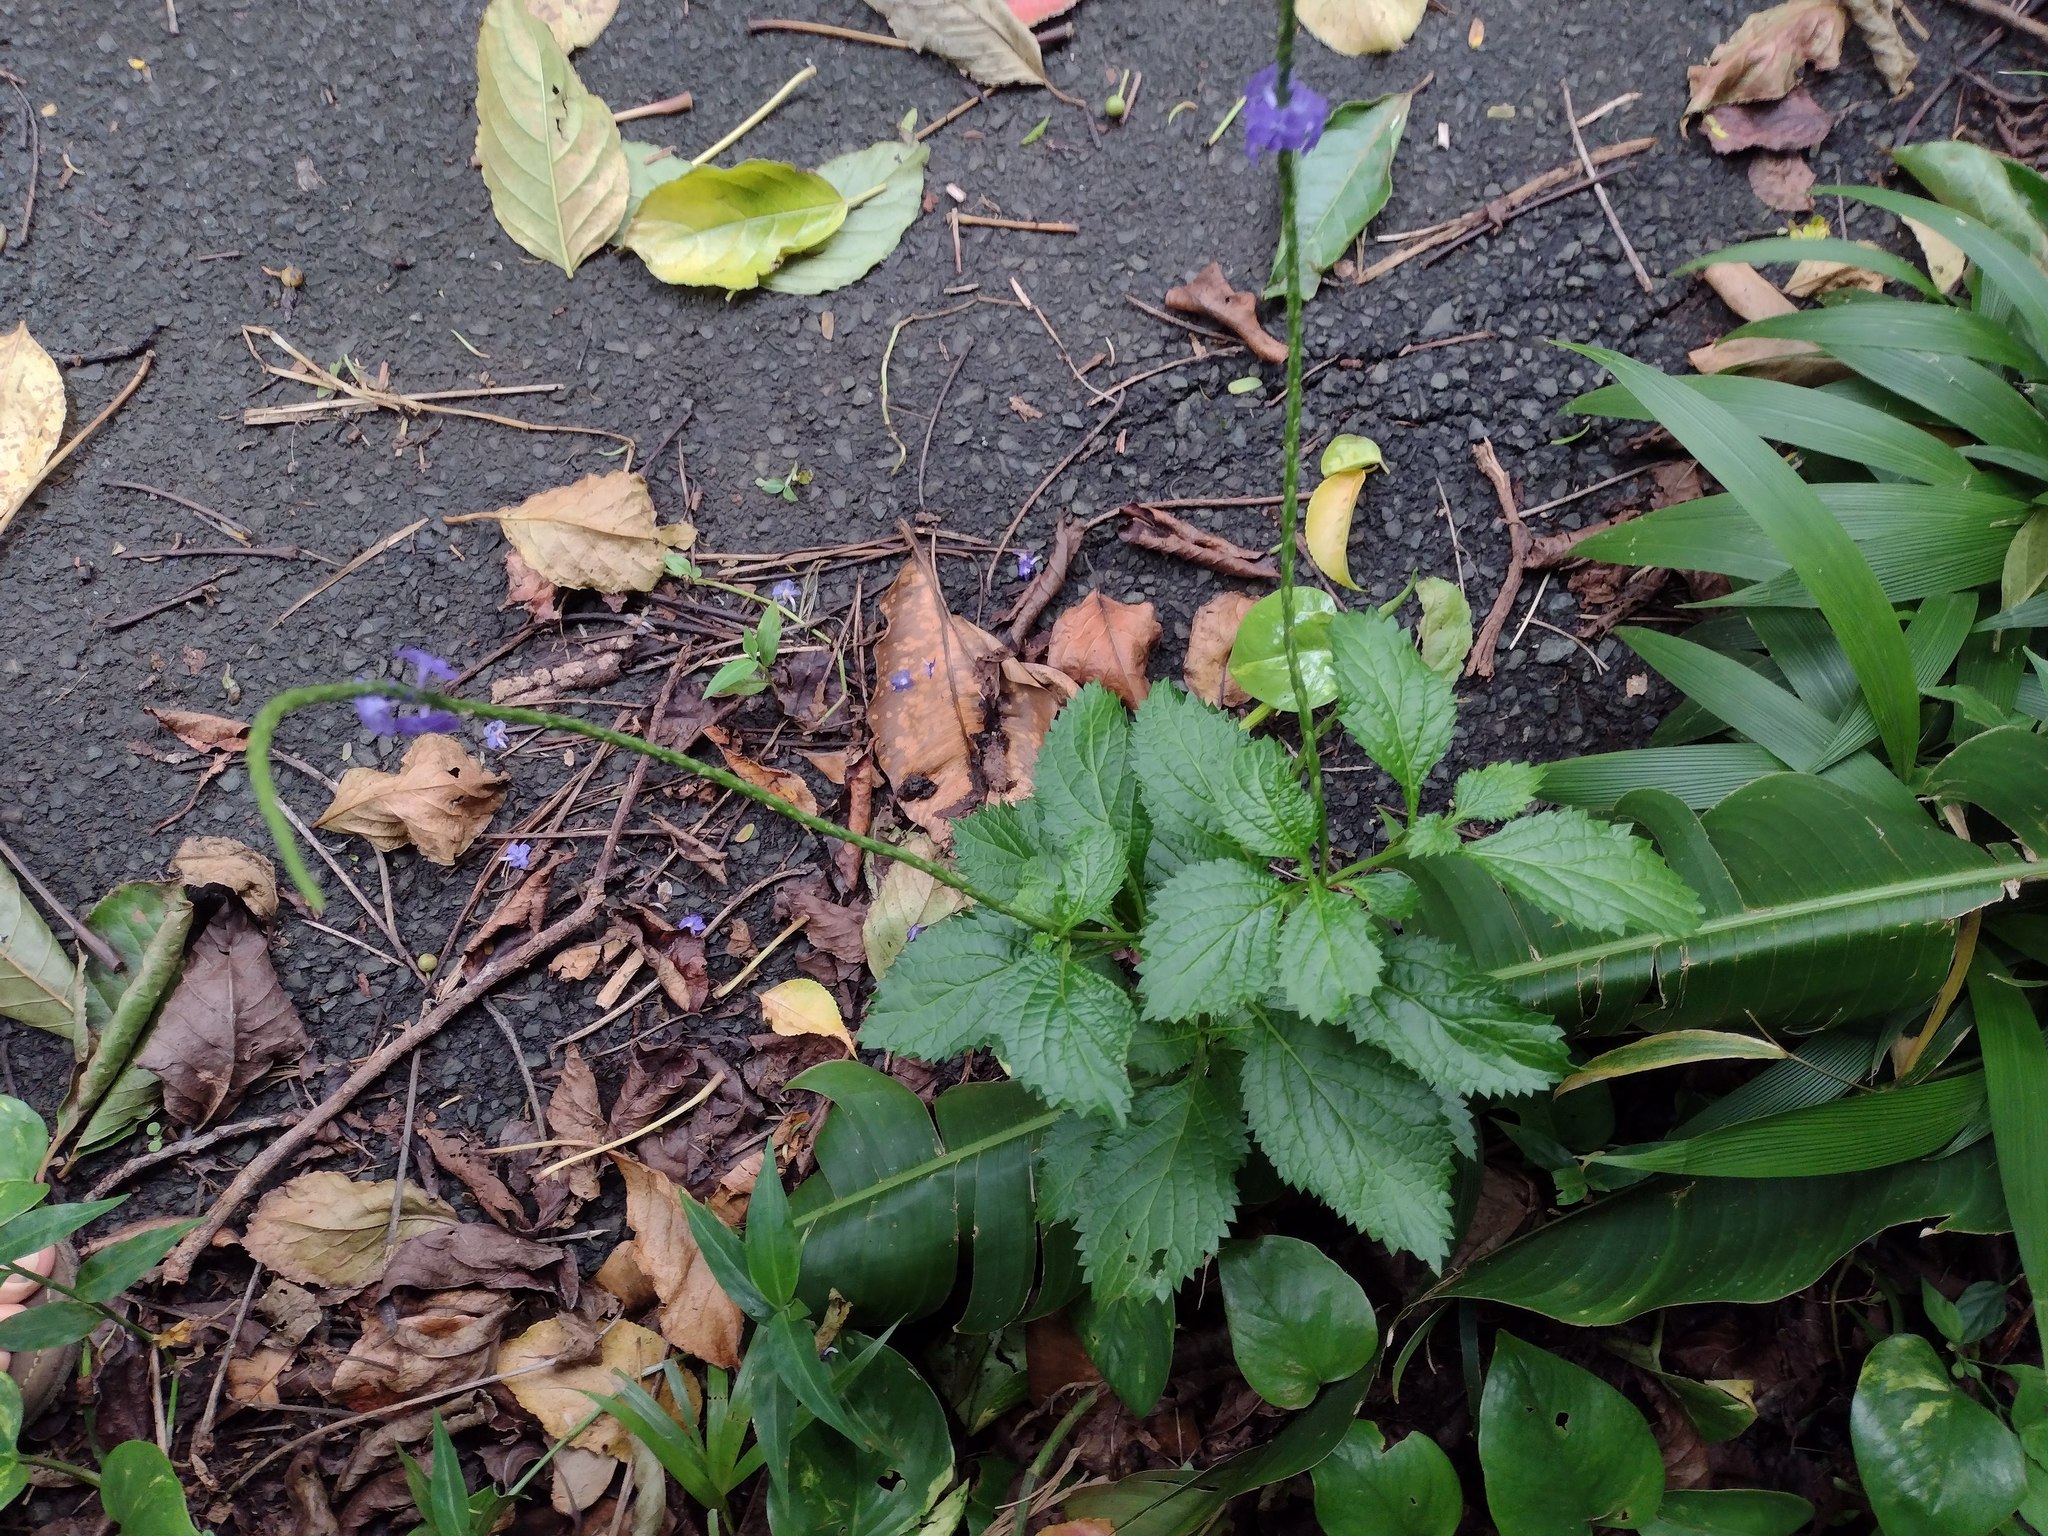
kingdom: Plantae
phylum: Tracheophyta
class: Magnoliopsida
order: Lamiales
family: Verbenaceae
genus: Stachytarpheta
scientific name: Stachytarpheta cayennensis
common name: Cayenne porterweed
